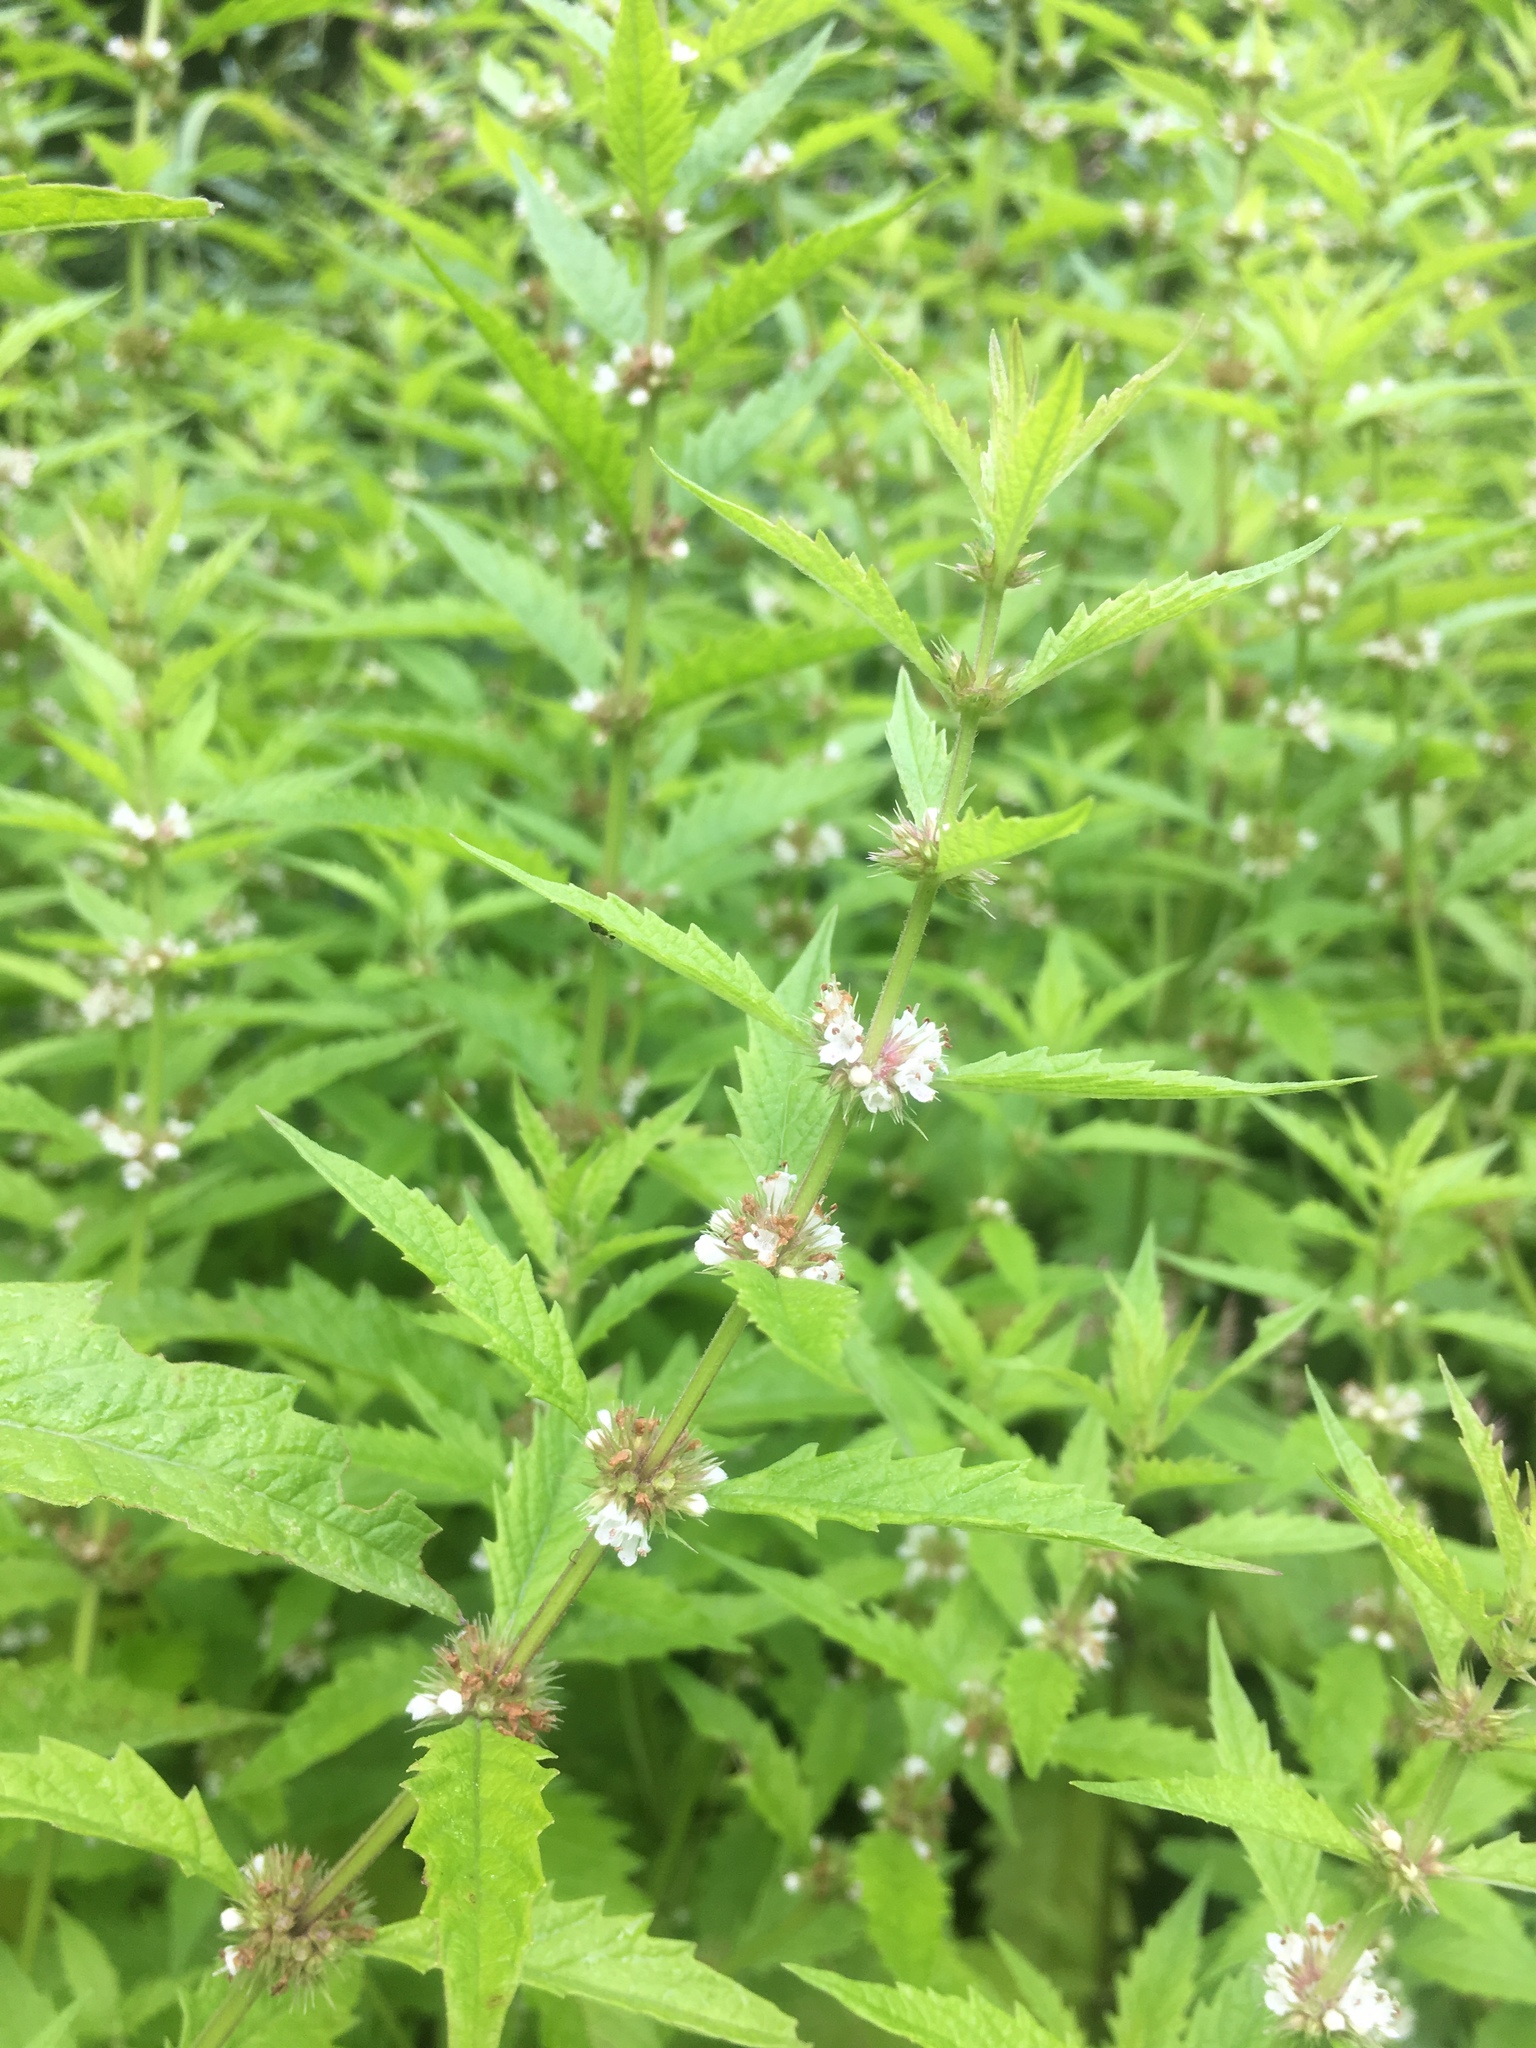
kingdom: Plantae
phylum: Tracheophyta
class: Magnoliopsida
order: Lamiales
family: Lamiaceae
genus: Lycopus
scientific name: Lycopus europaeus
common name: European bugleweed
